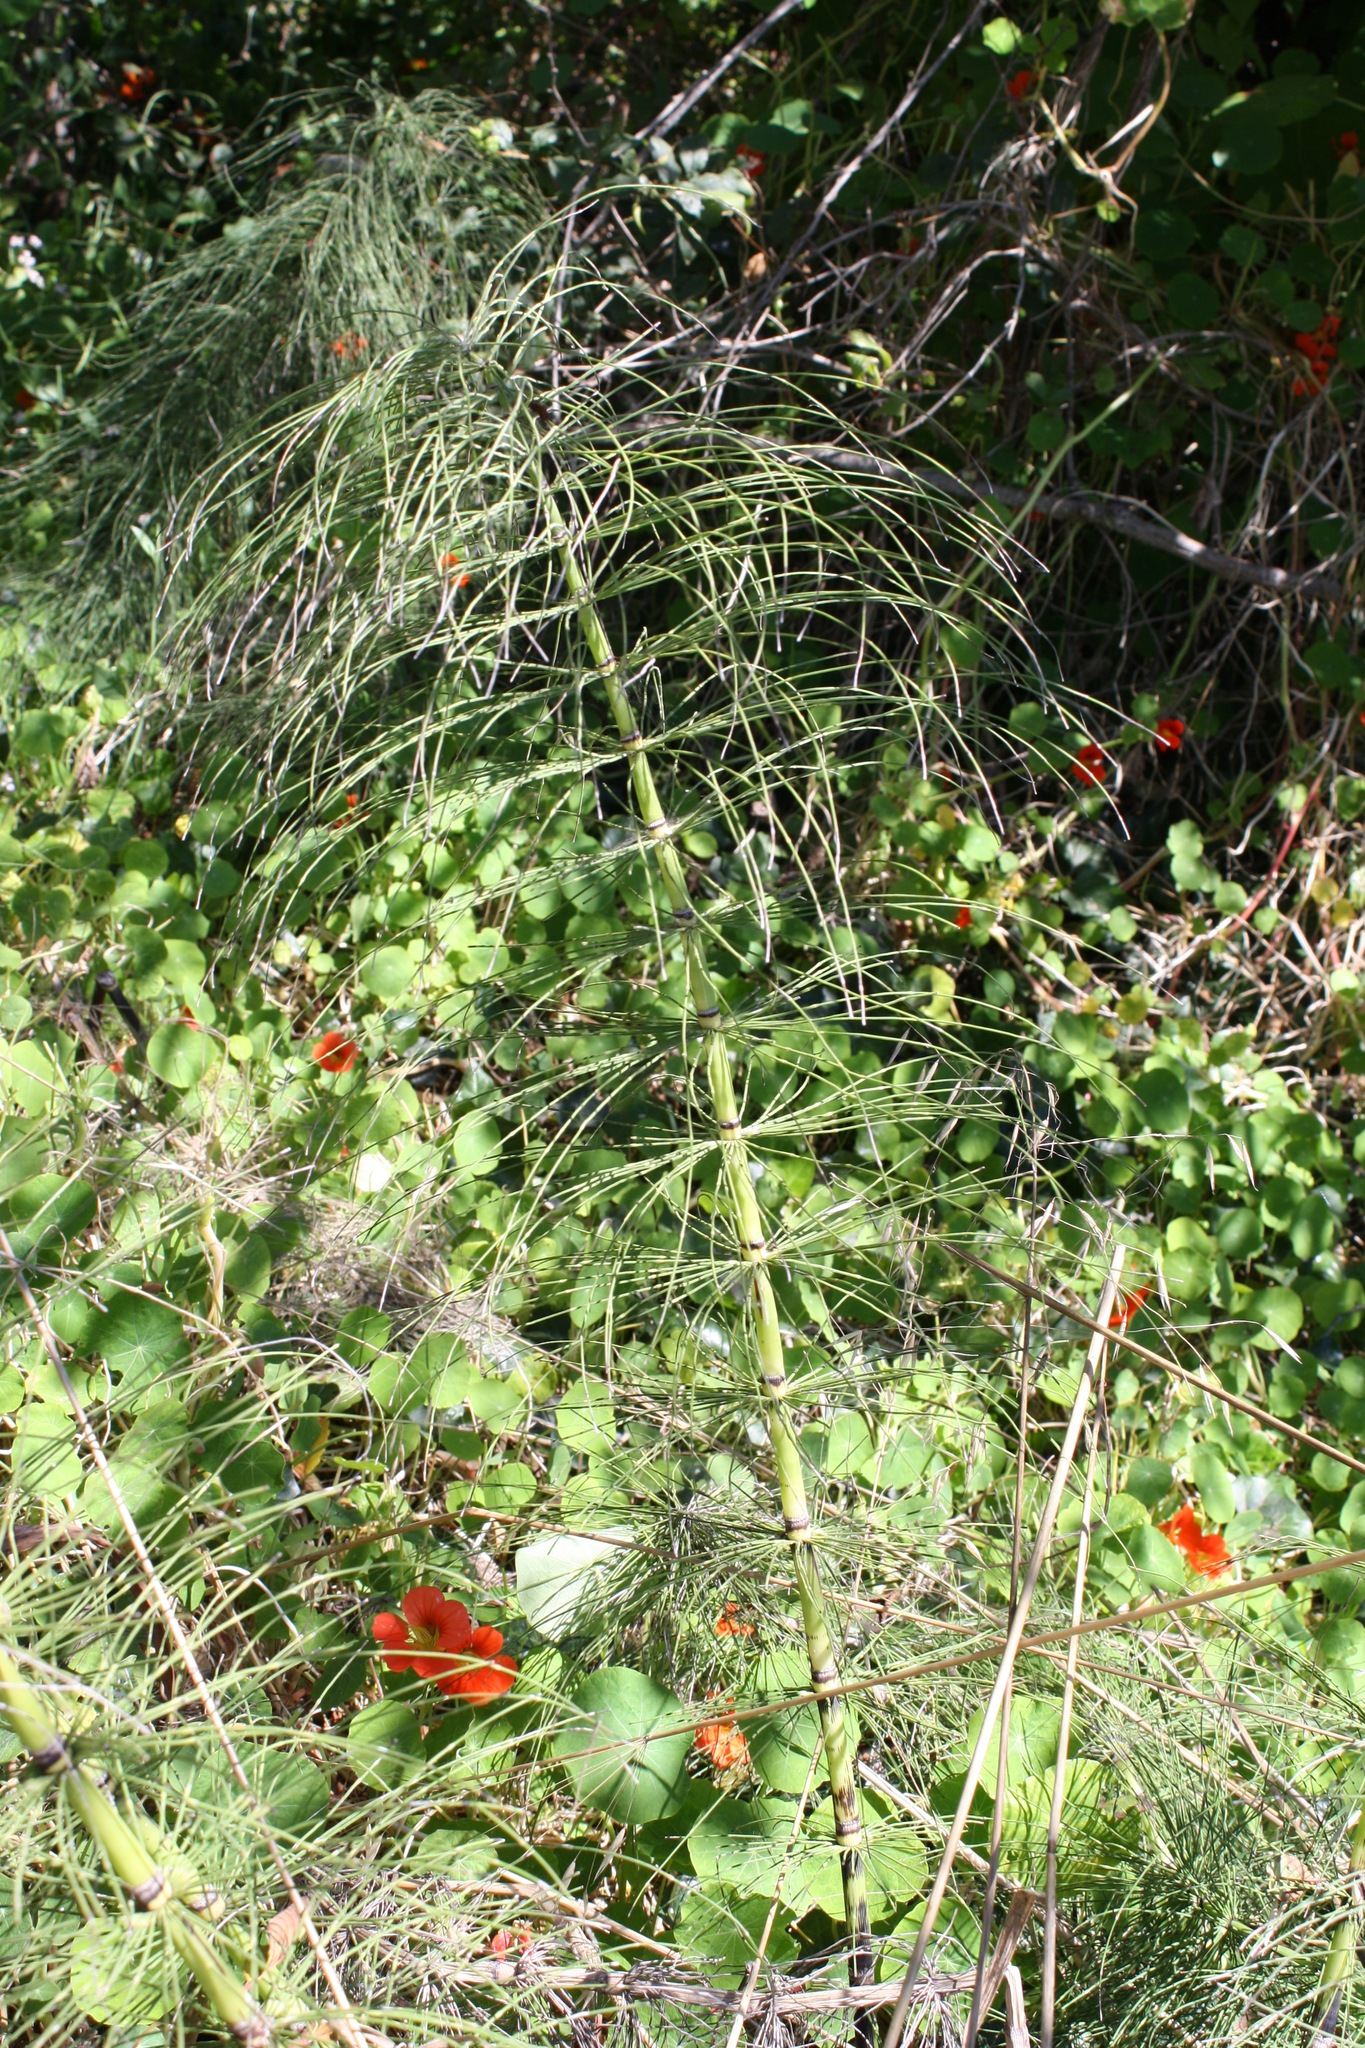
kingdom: Plantae
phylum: Tracheophyta
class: Polypodiopsida
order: Equisetales
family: Equisetaceae
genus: Equisetum
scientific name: Equisetum braunii
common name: Braun's horsetail
